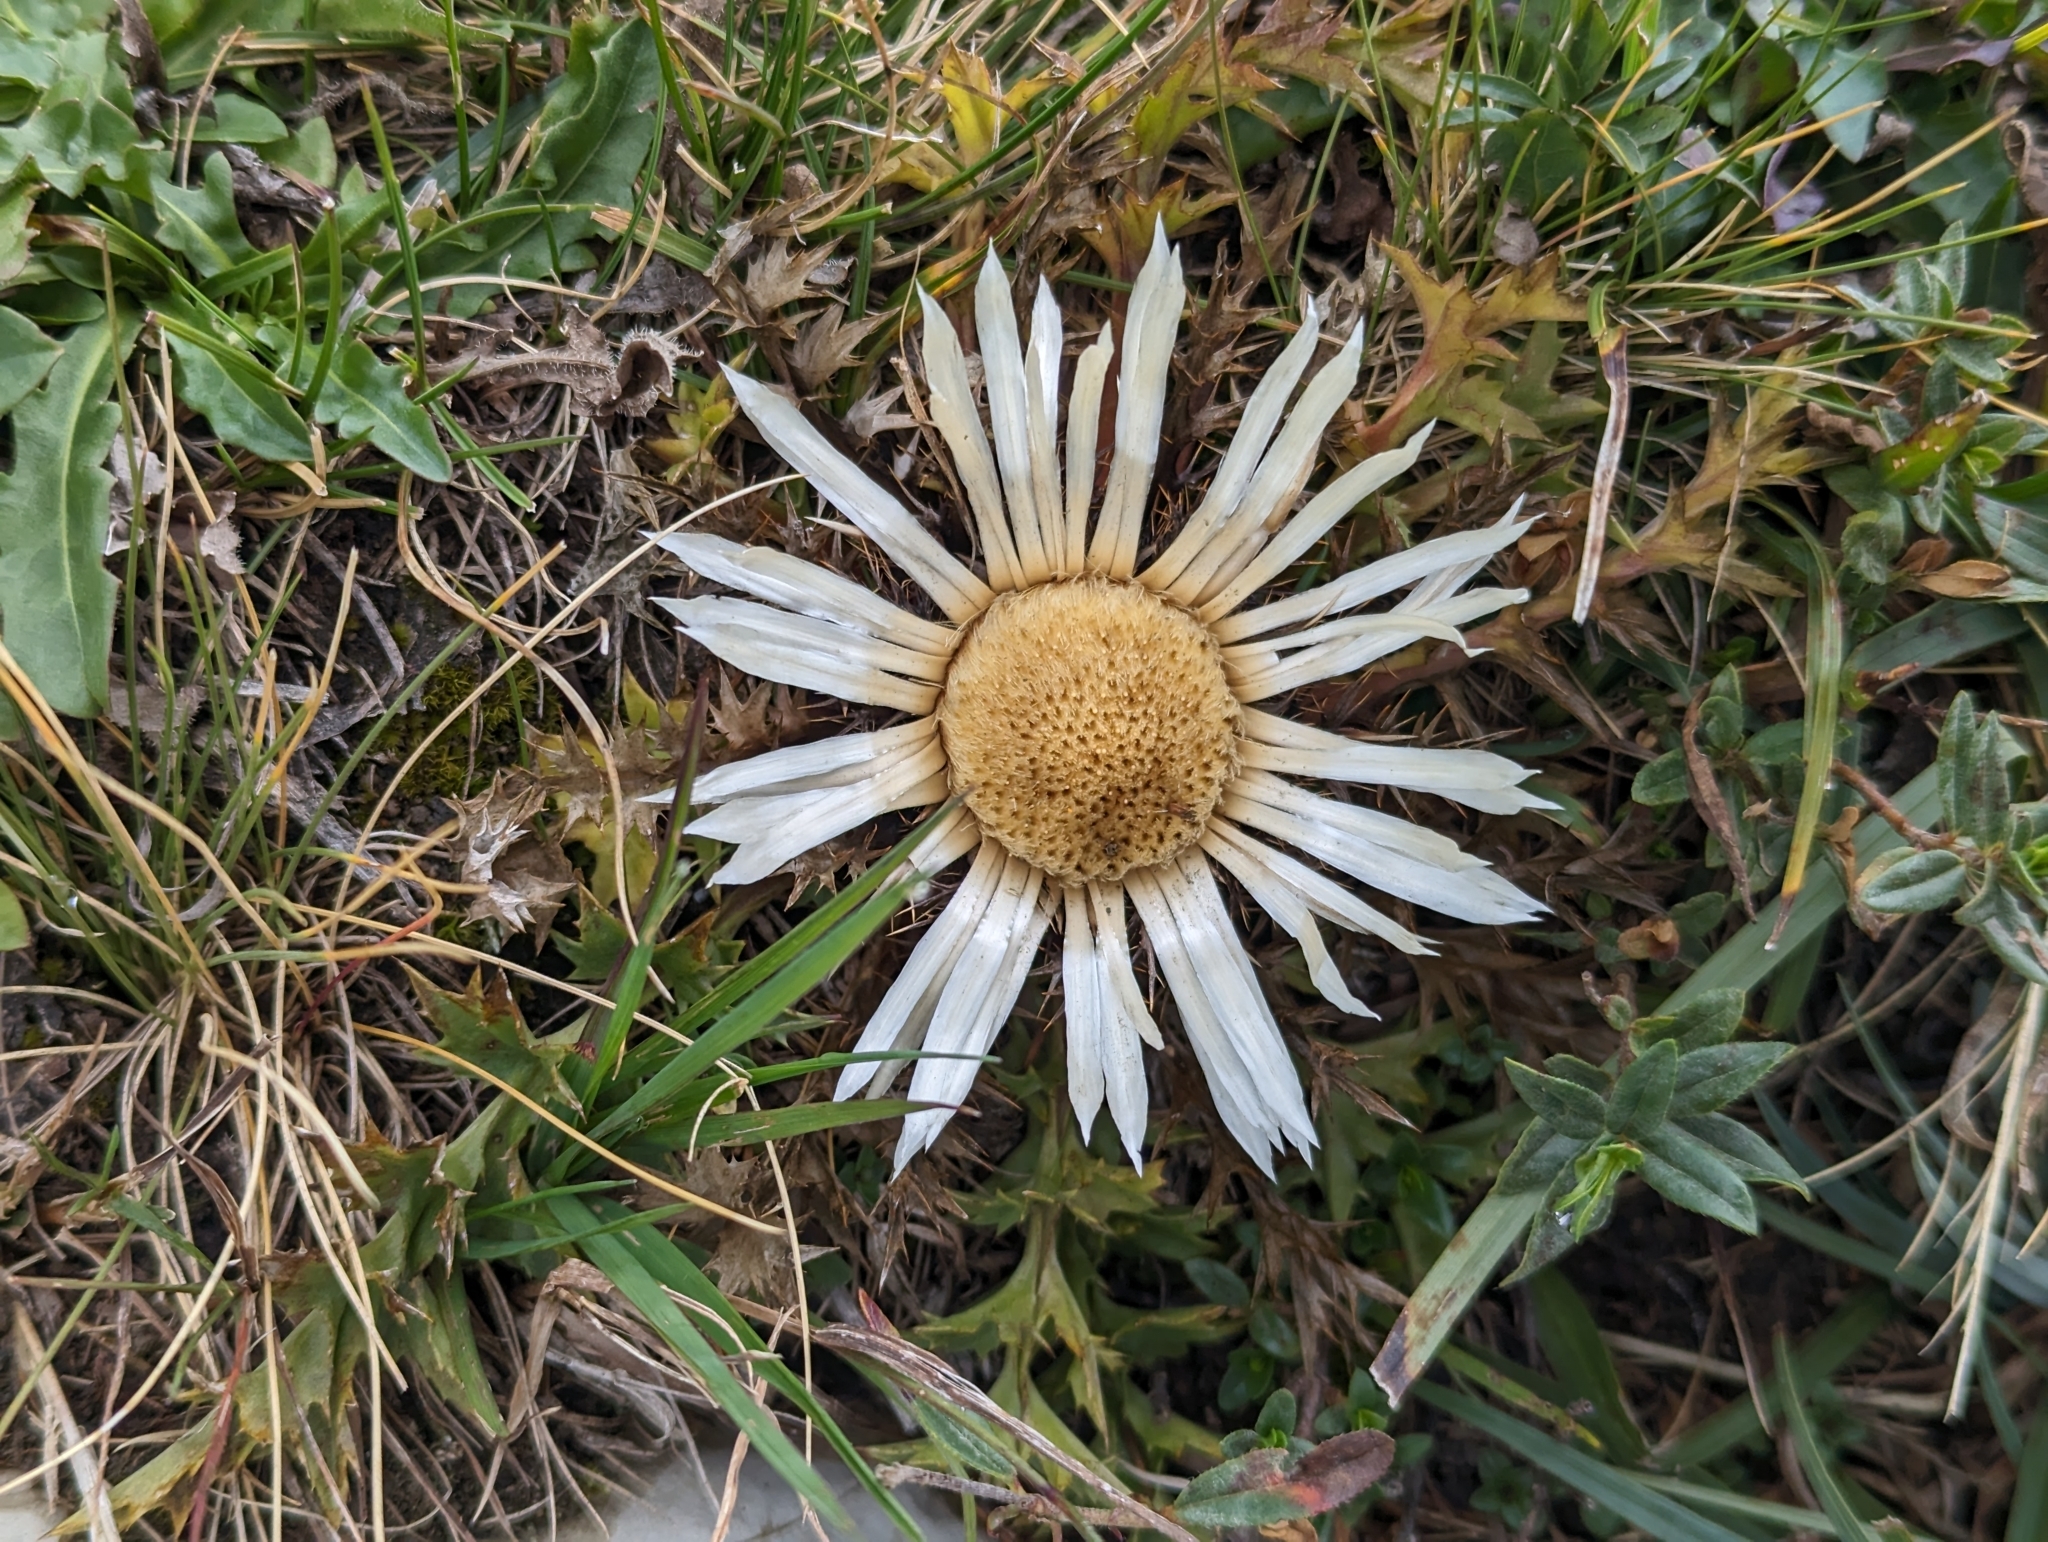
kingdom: Plantae
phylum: Tracheophyta
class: Magnoliopsida
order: Asterales
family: Asteraceae
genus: Carlina
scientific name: Carlina acaulis
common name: Stemless carline thistle
